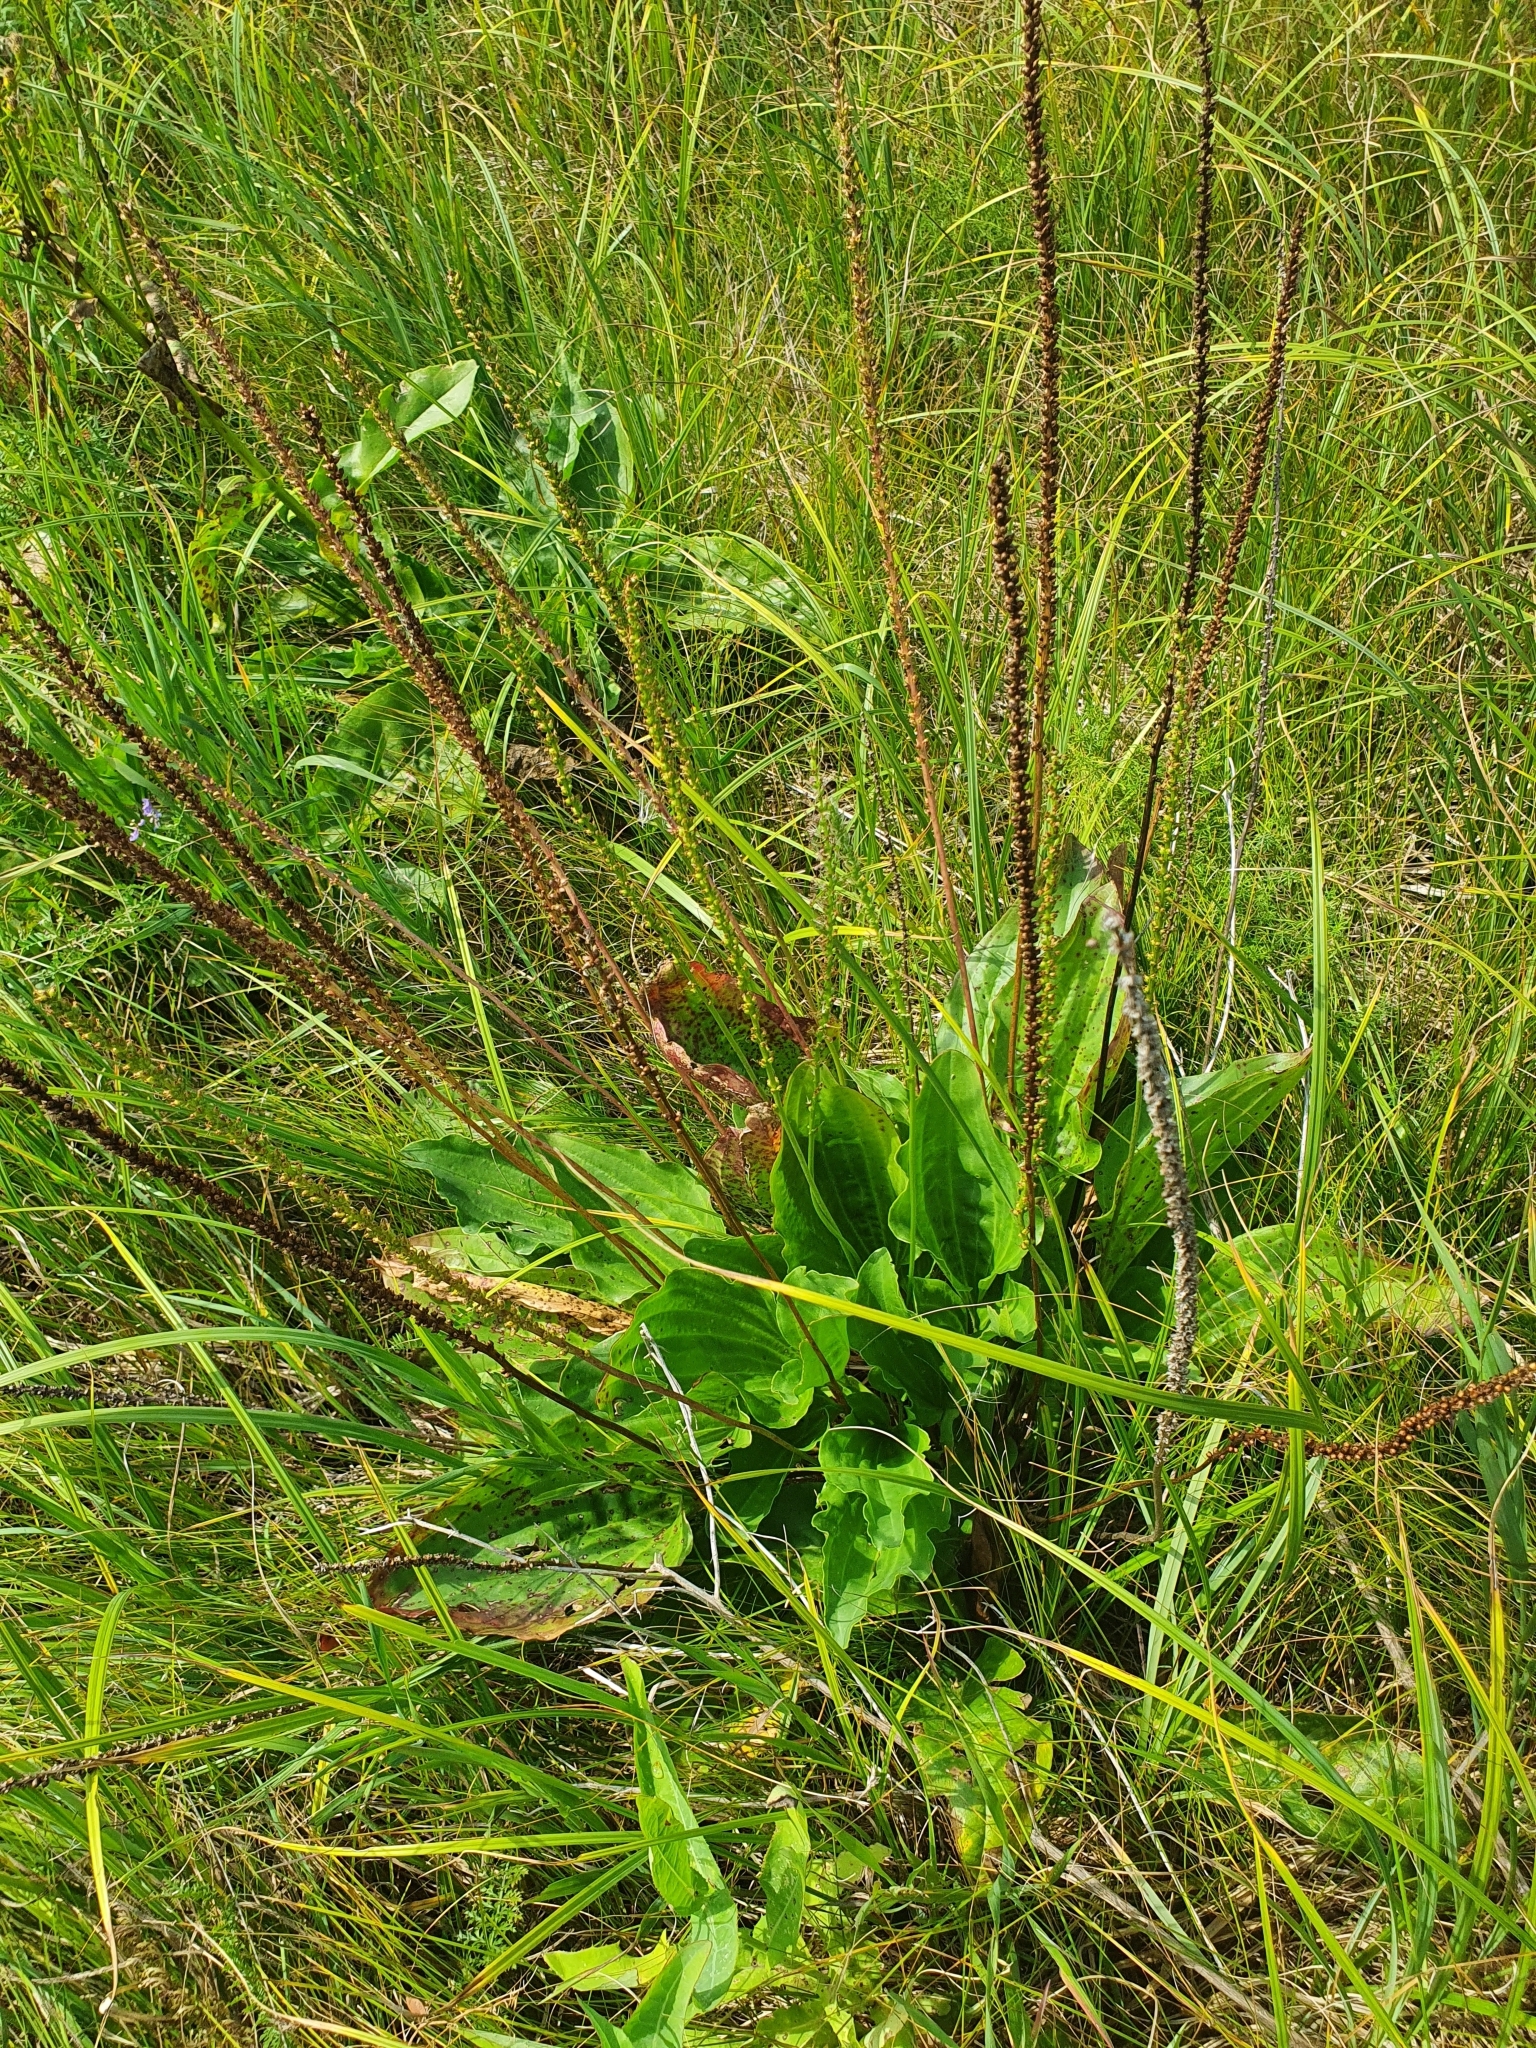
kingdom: Plantae
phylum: Tracheophyta
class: Magnoliopsida
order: Lamiales
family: Plantaginaceae
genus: Plantago
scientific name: Plantago cornuti
